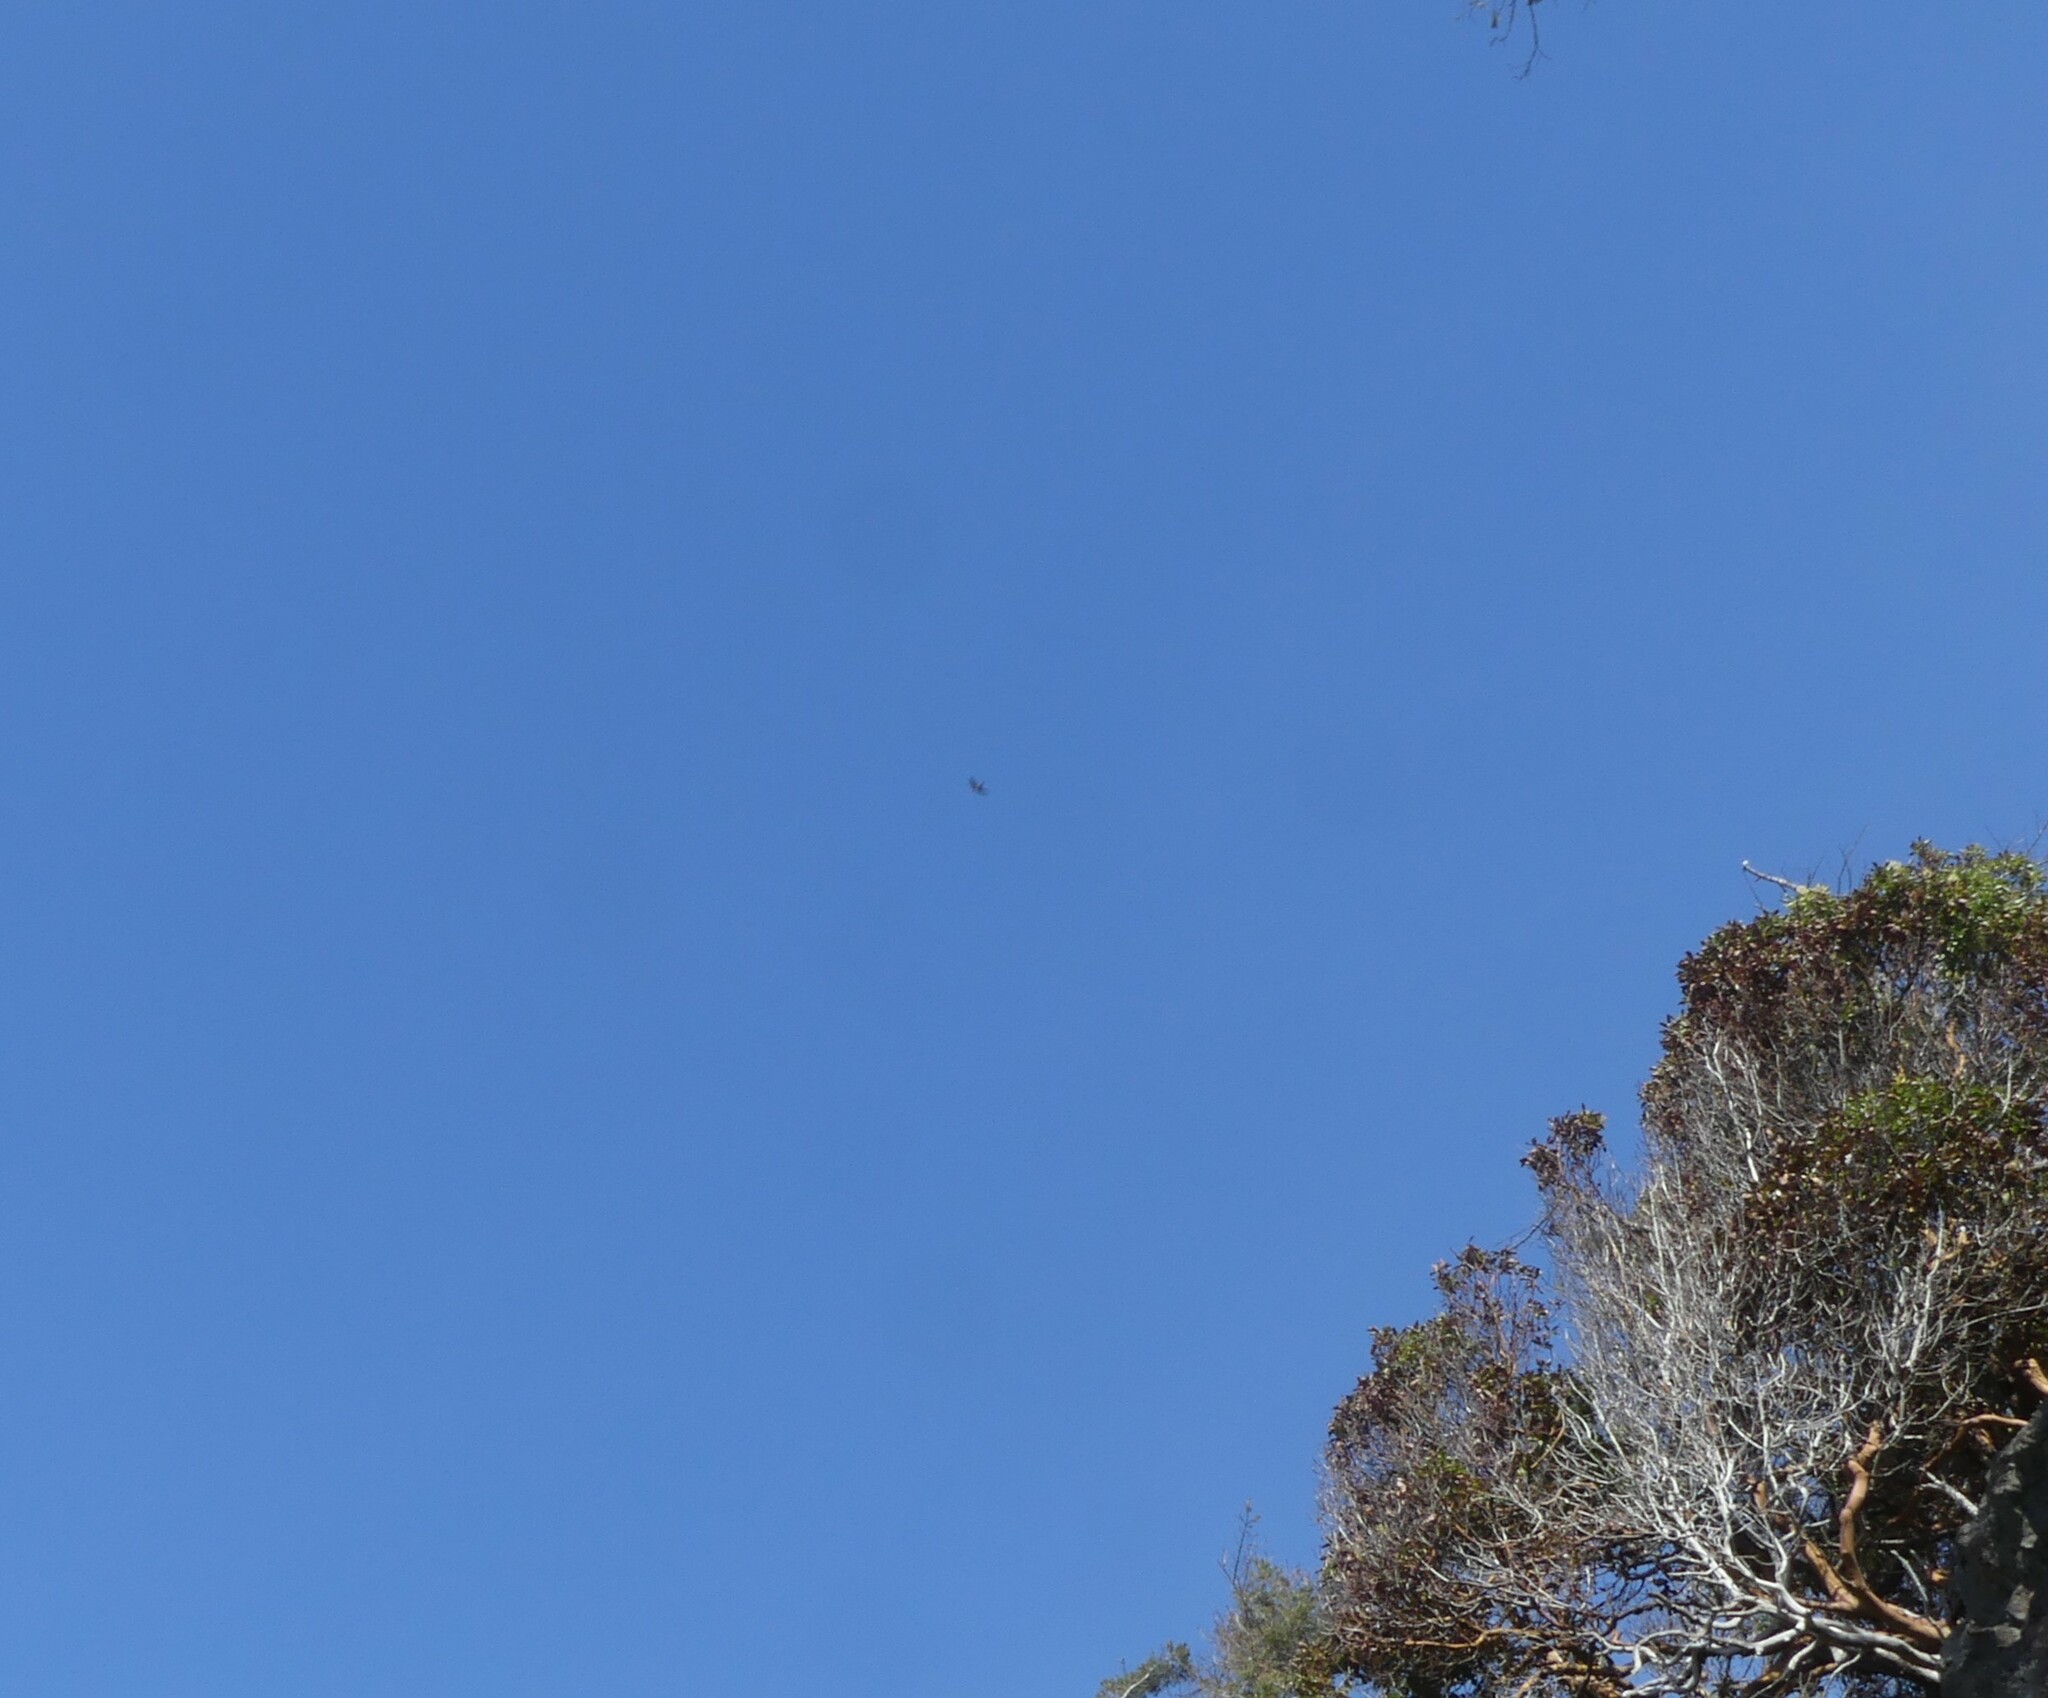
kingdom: Animalia
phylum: Chordata
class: Aves
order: Passeriformes
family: Hirundinidae
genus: Tachycineta
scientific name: Tachycineta thalassina
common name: Violet-green swallow
